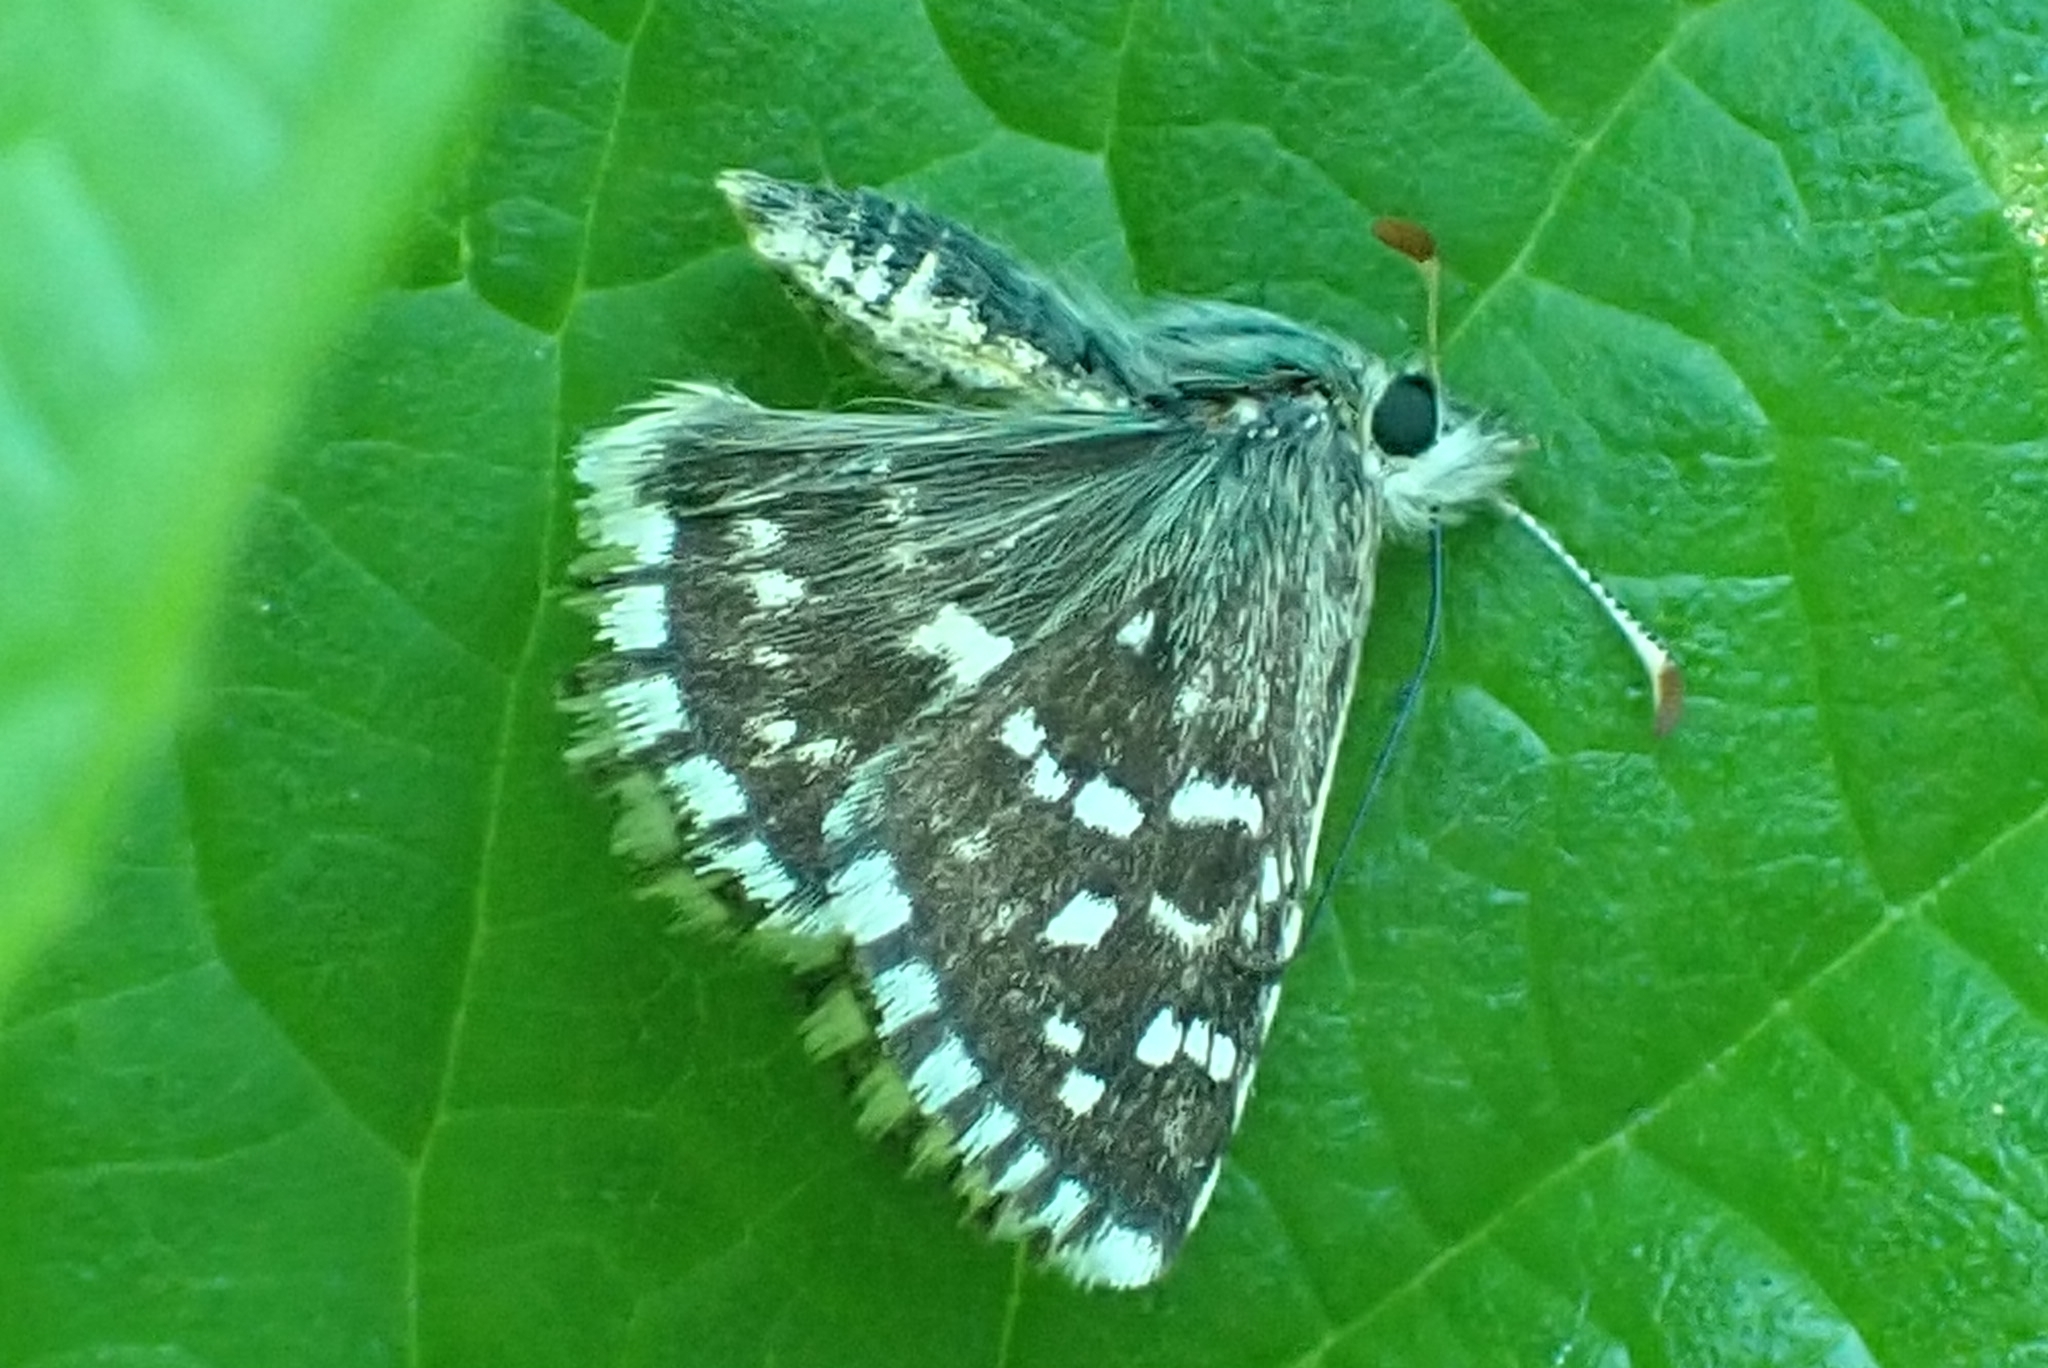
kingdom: Animalia
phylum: Arthropoda
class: Insecta
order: Lepidoptera
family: Hesperiidae
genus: Pyrgus
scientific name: Pyrgus malvae
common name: Grizzled skipper
